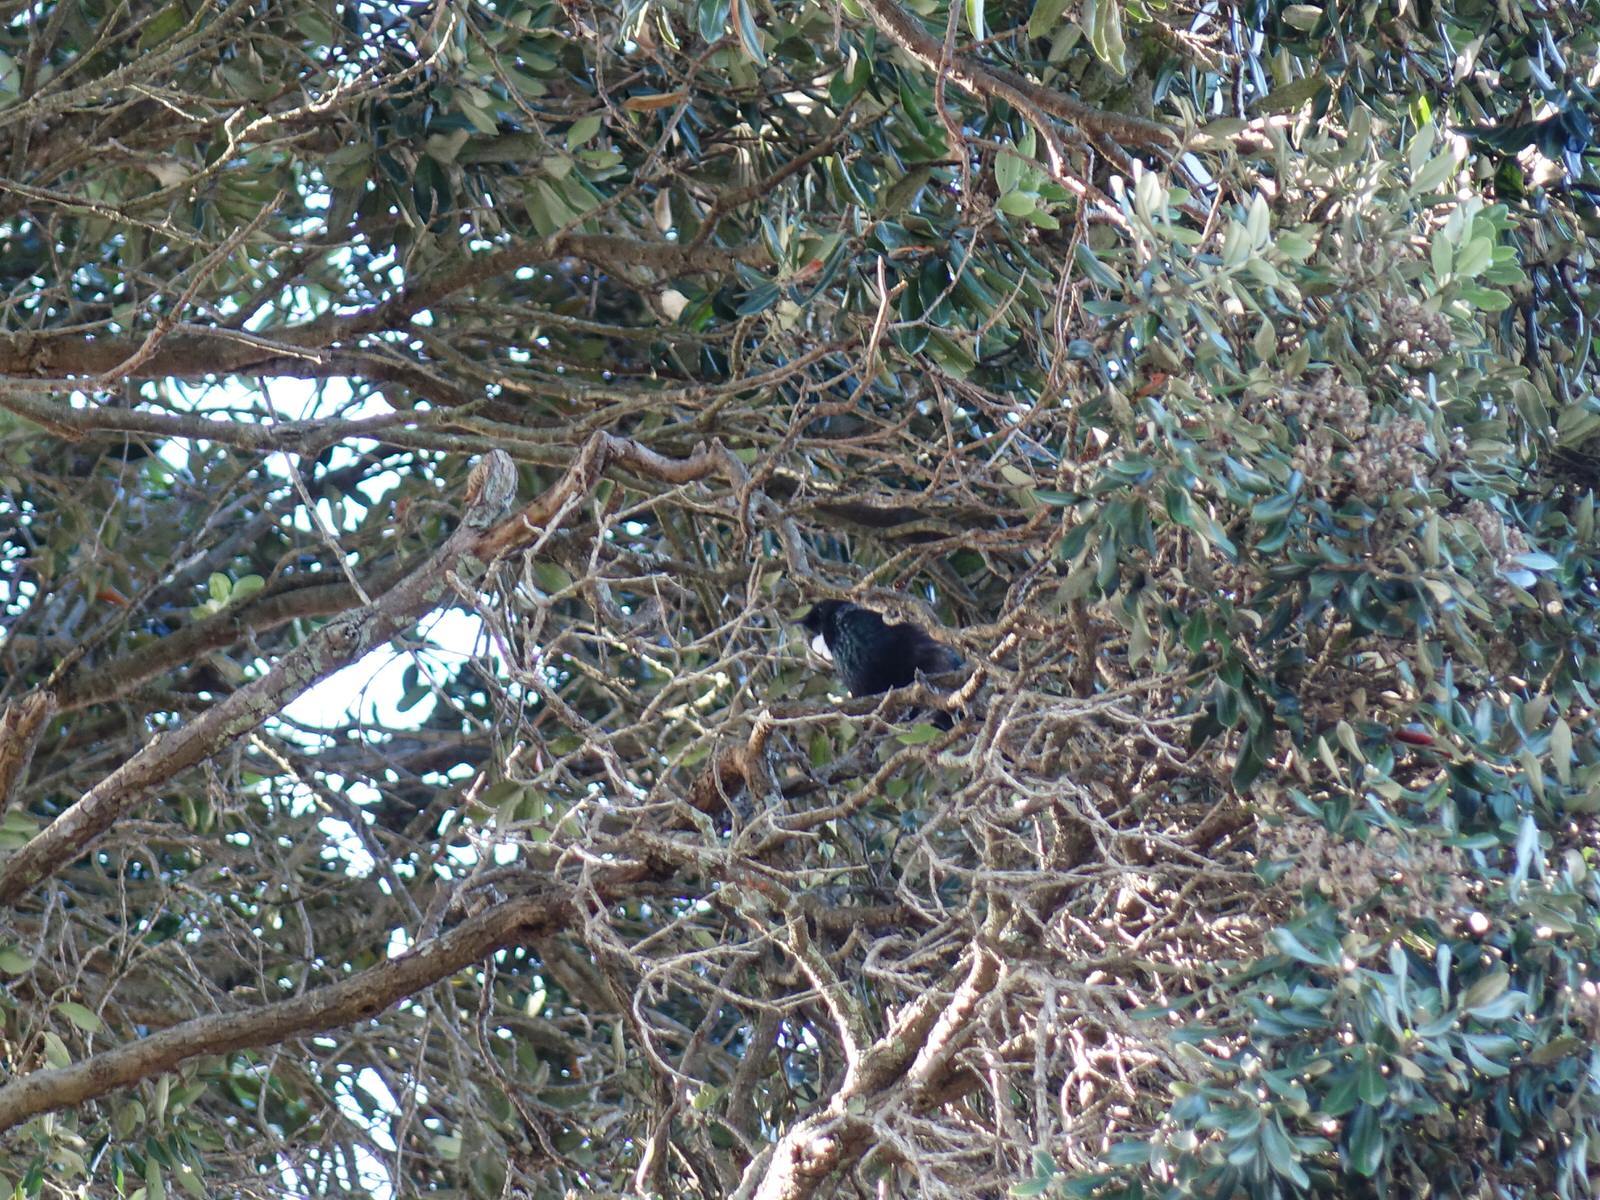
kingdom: Animalia
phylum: Chordata
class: Aves
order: Passeriformes
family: Meliphagidae
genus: Prosthemadera
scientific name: Prosthemadera novaeseelandiae
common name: Tui
